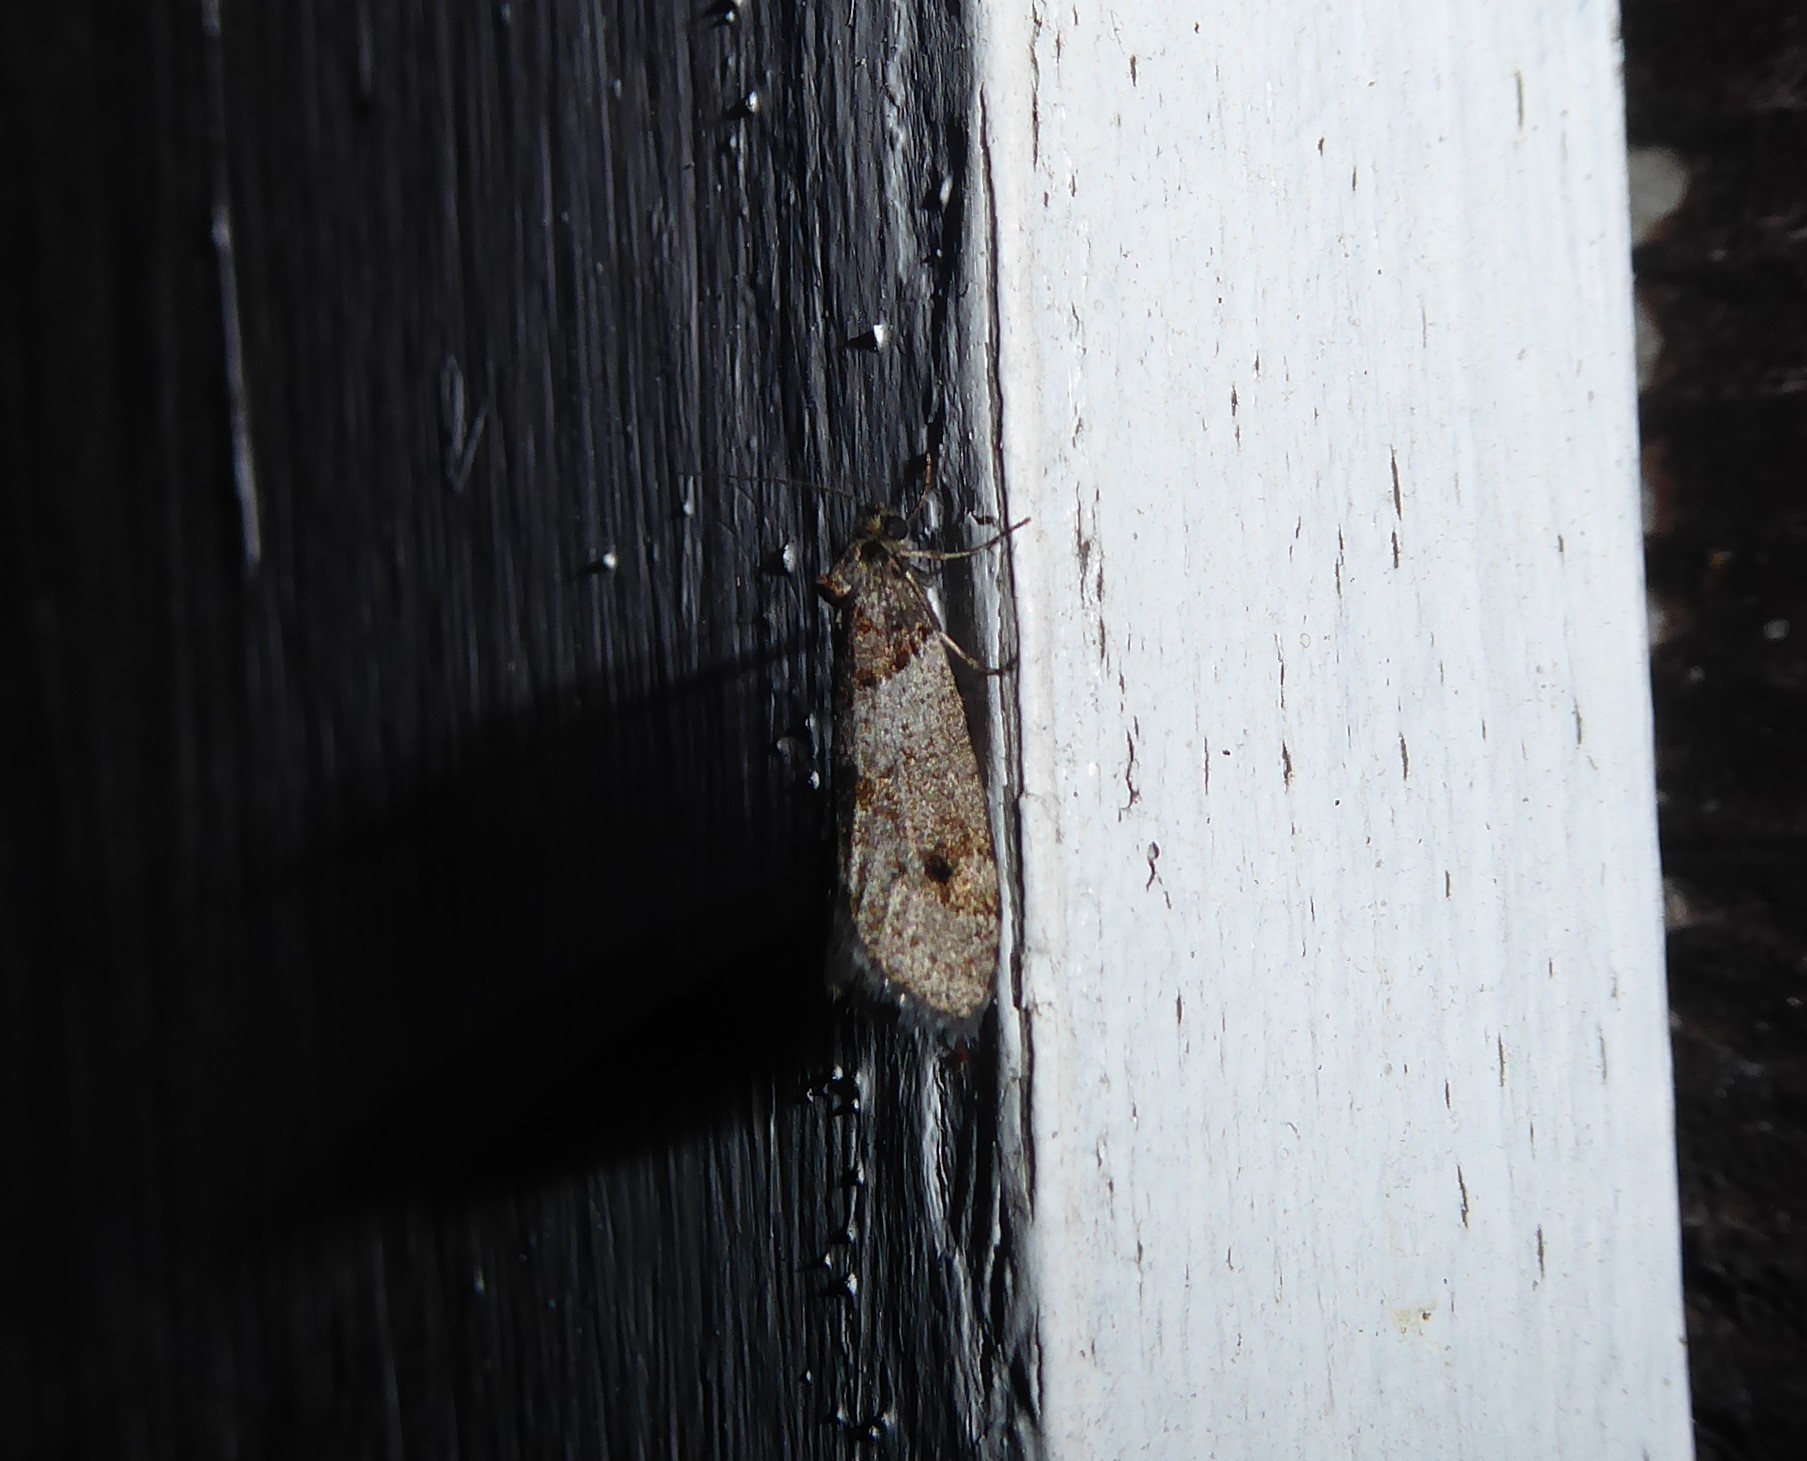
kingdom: Animalia
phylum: Arthropoda
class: Insecta
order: Lepidoptera
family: Psychidae
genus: Lepidoscia
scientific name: Lepidoscia heliochares
